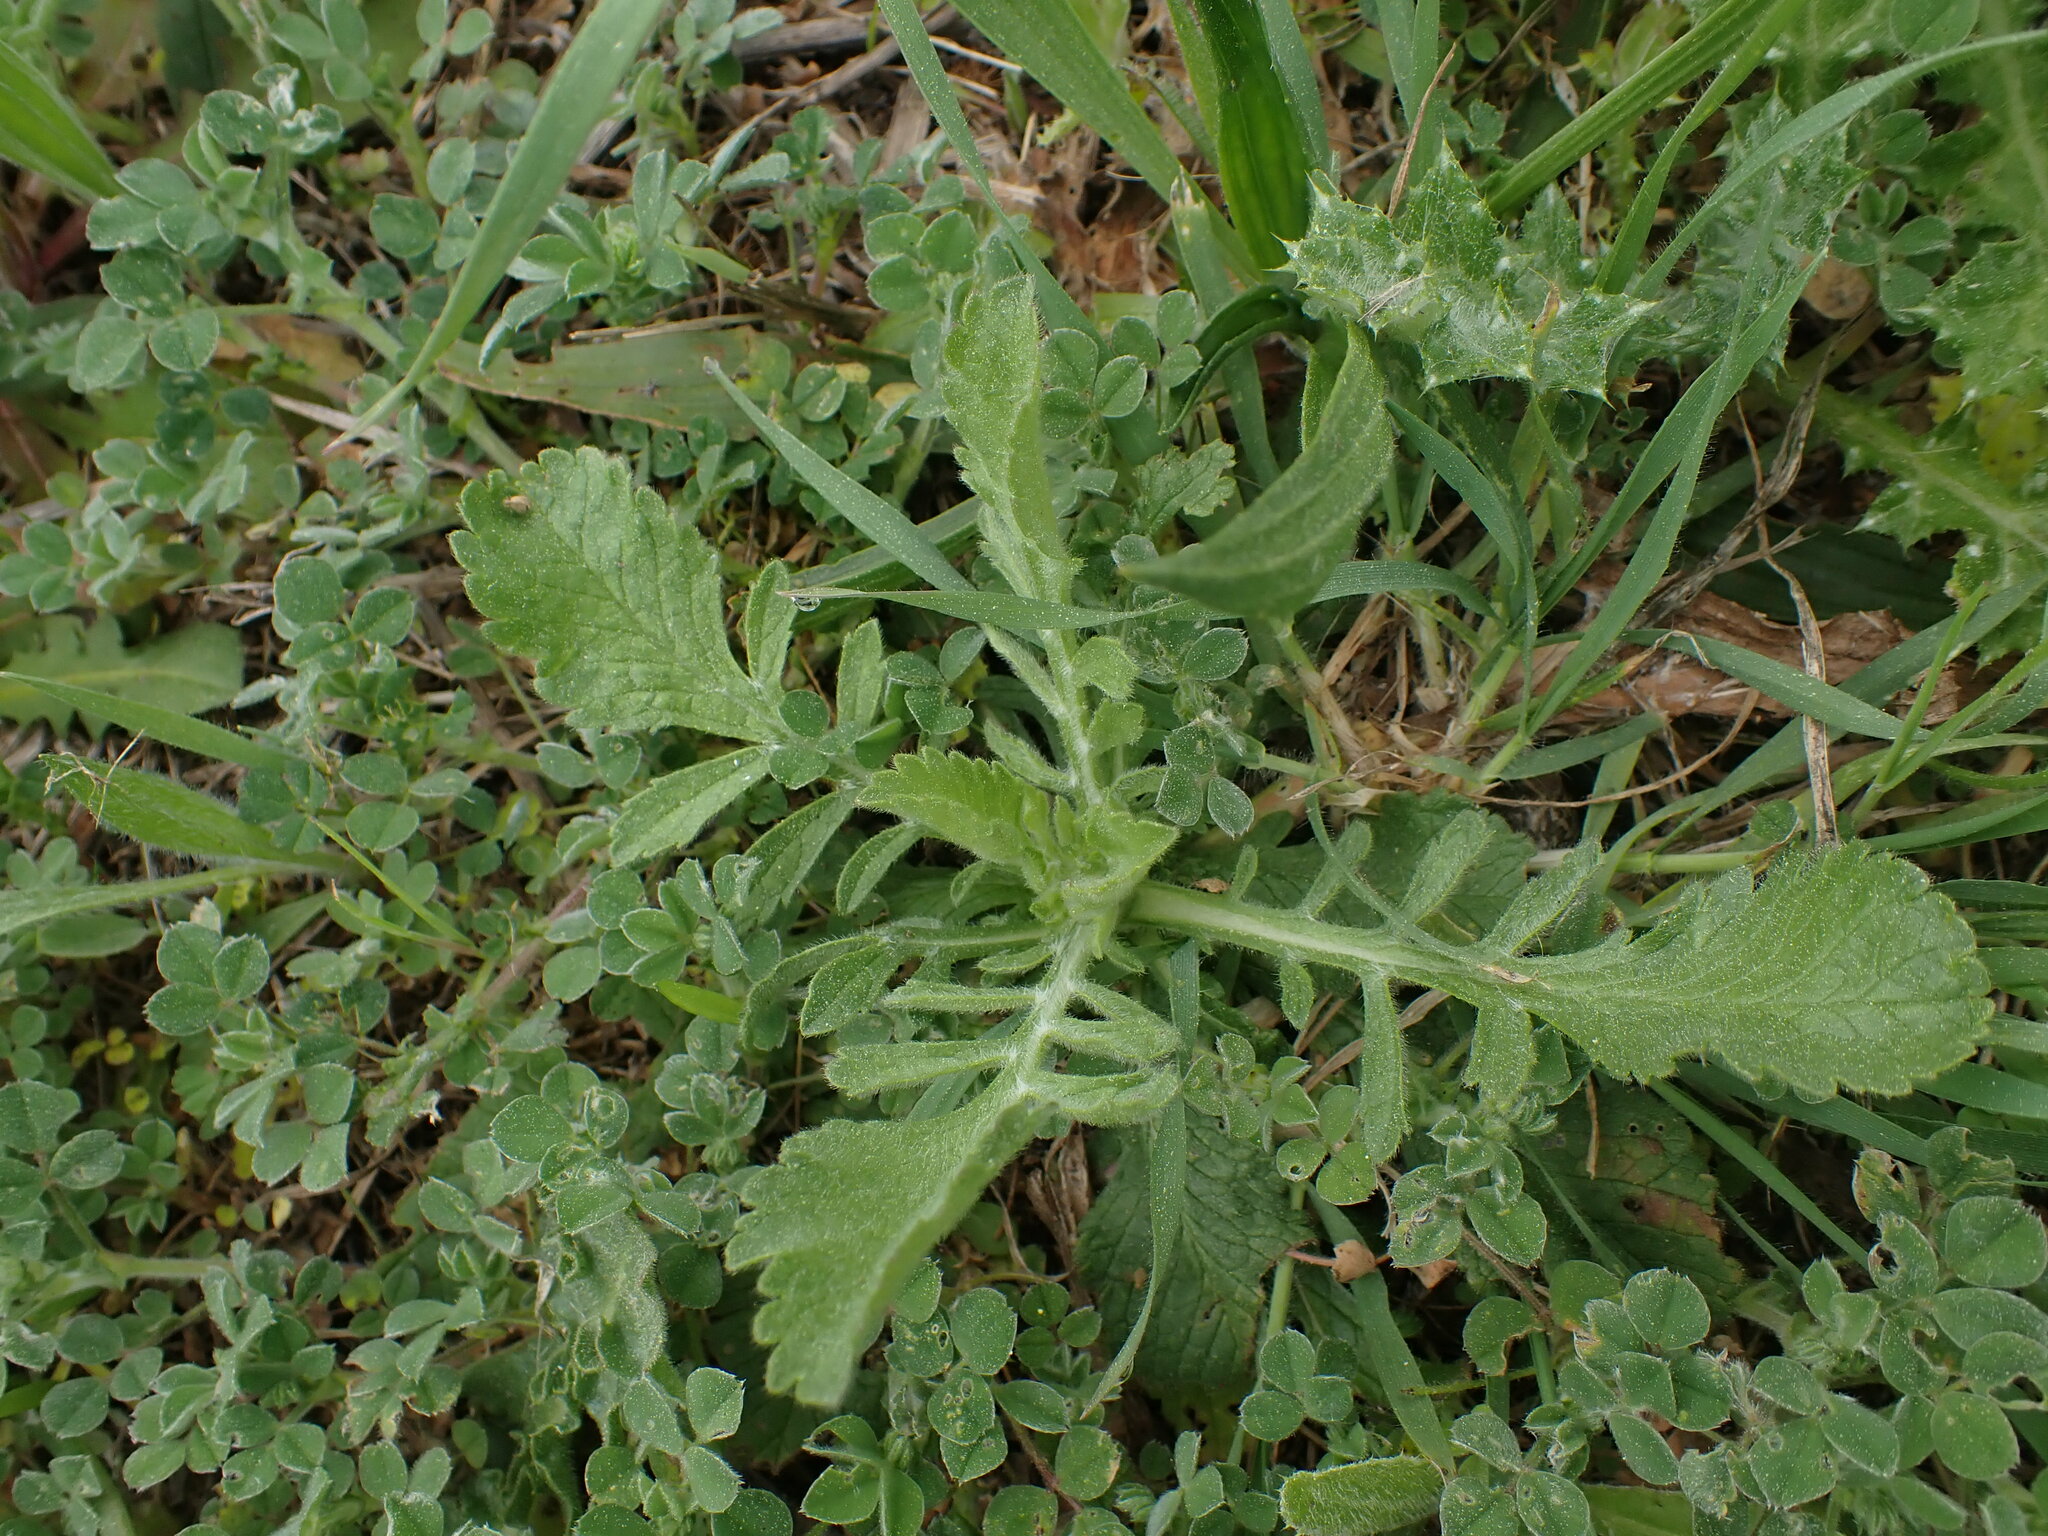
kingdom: Plantae
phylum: Tracheophyta
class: Magnoliopsida
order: Dipsacales
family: Caprifoliaceae
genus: Sixalix
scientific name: Sixalix maritima
